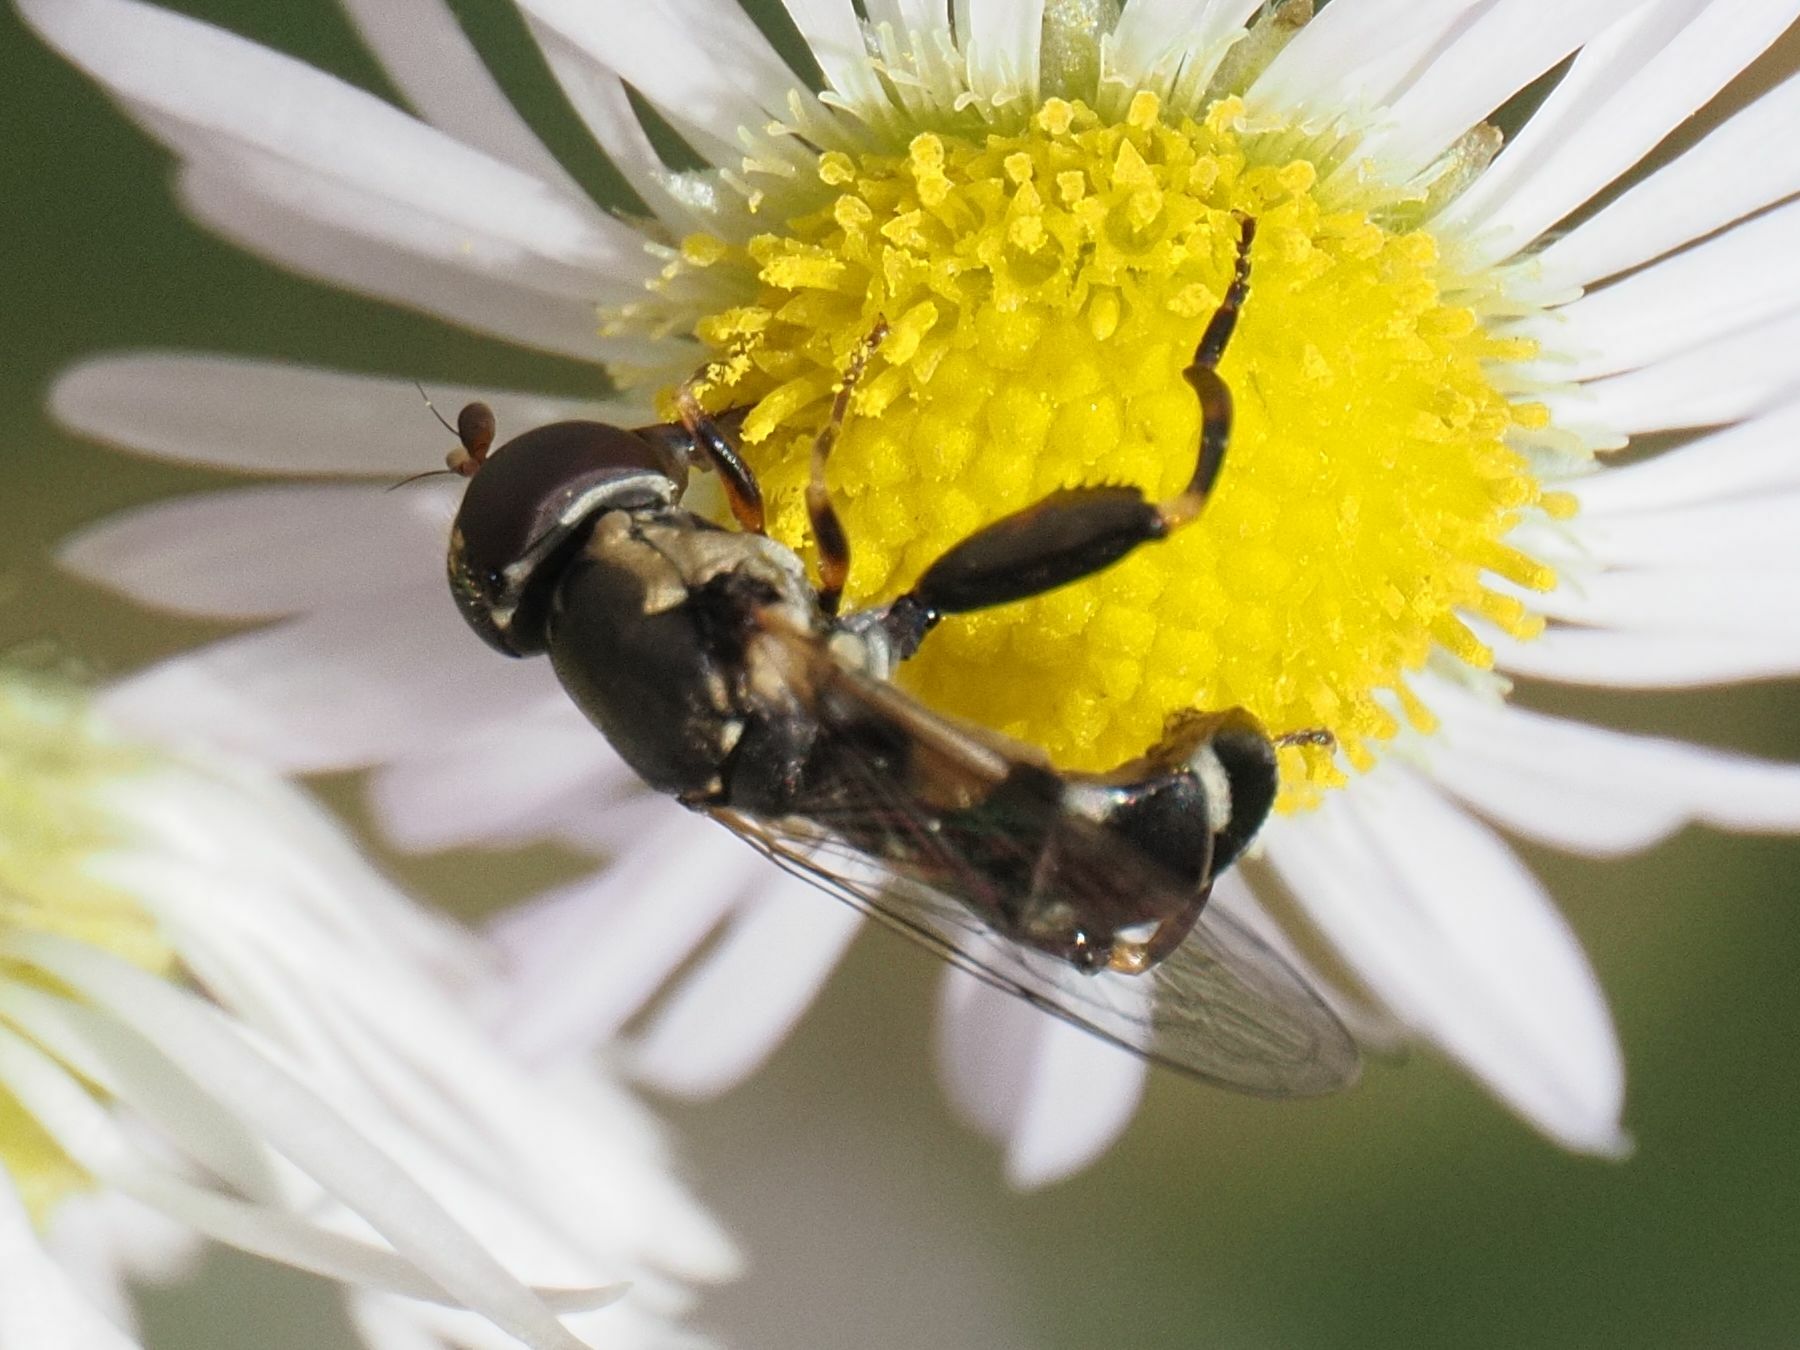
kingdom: Animalia
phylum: Arthropoda
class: Insecta
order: Diptera
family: Syrphidae
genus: Syritta
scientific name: Syritta pipiens
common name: Hover fly
